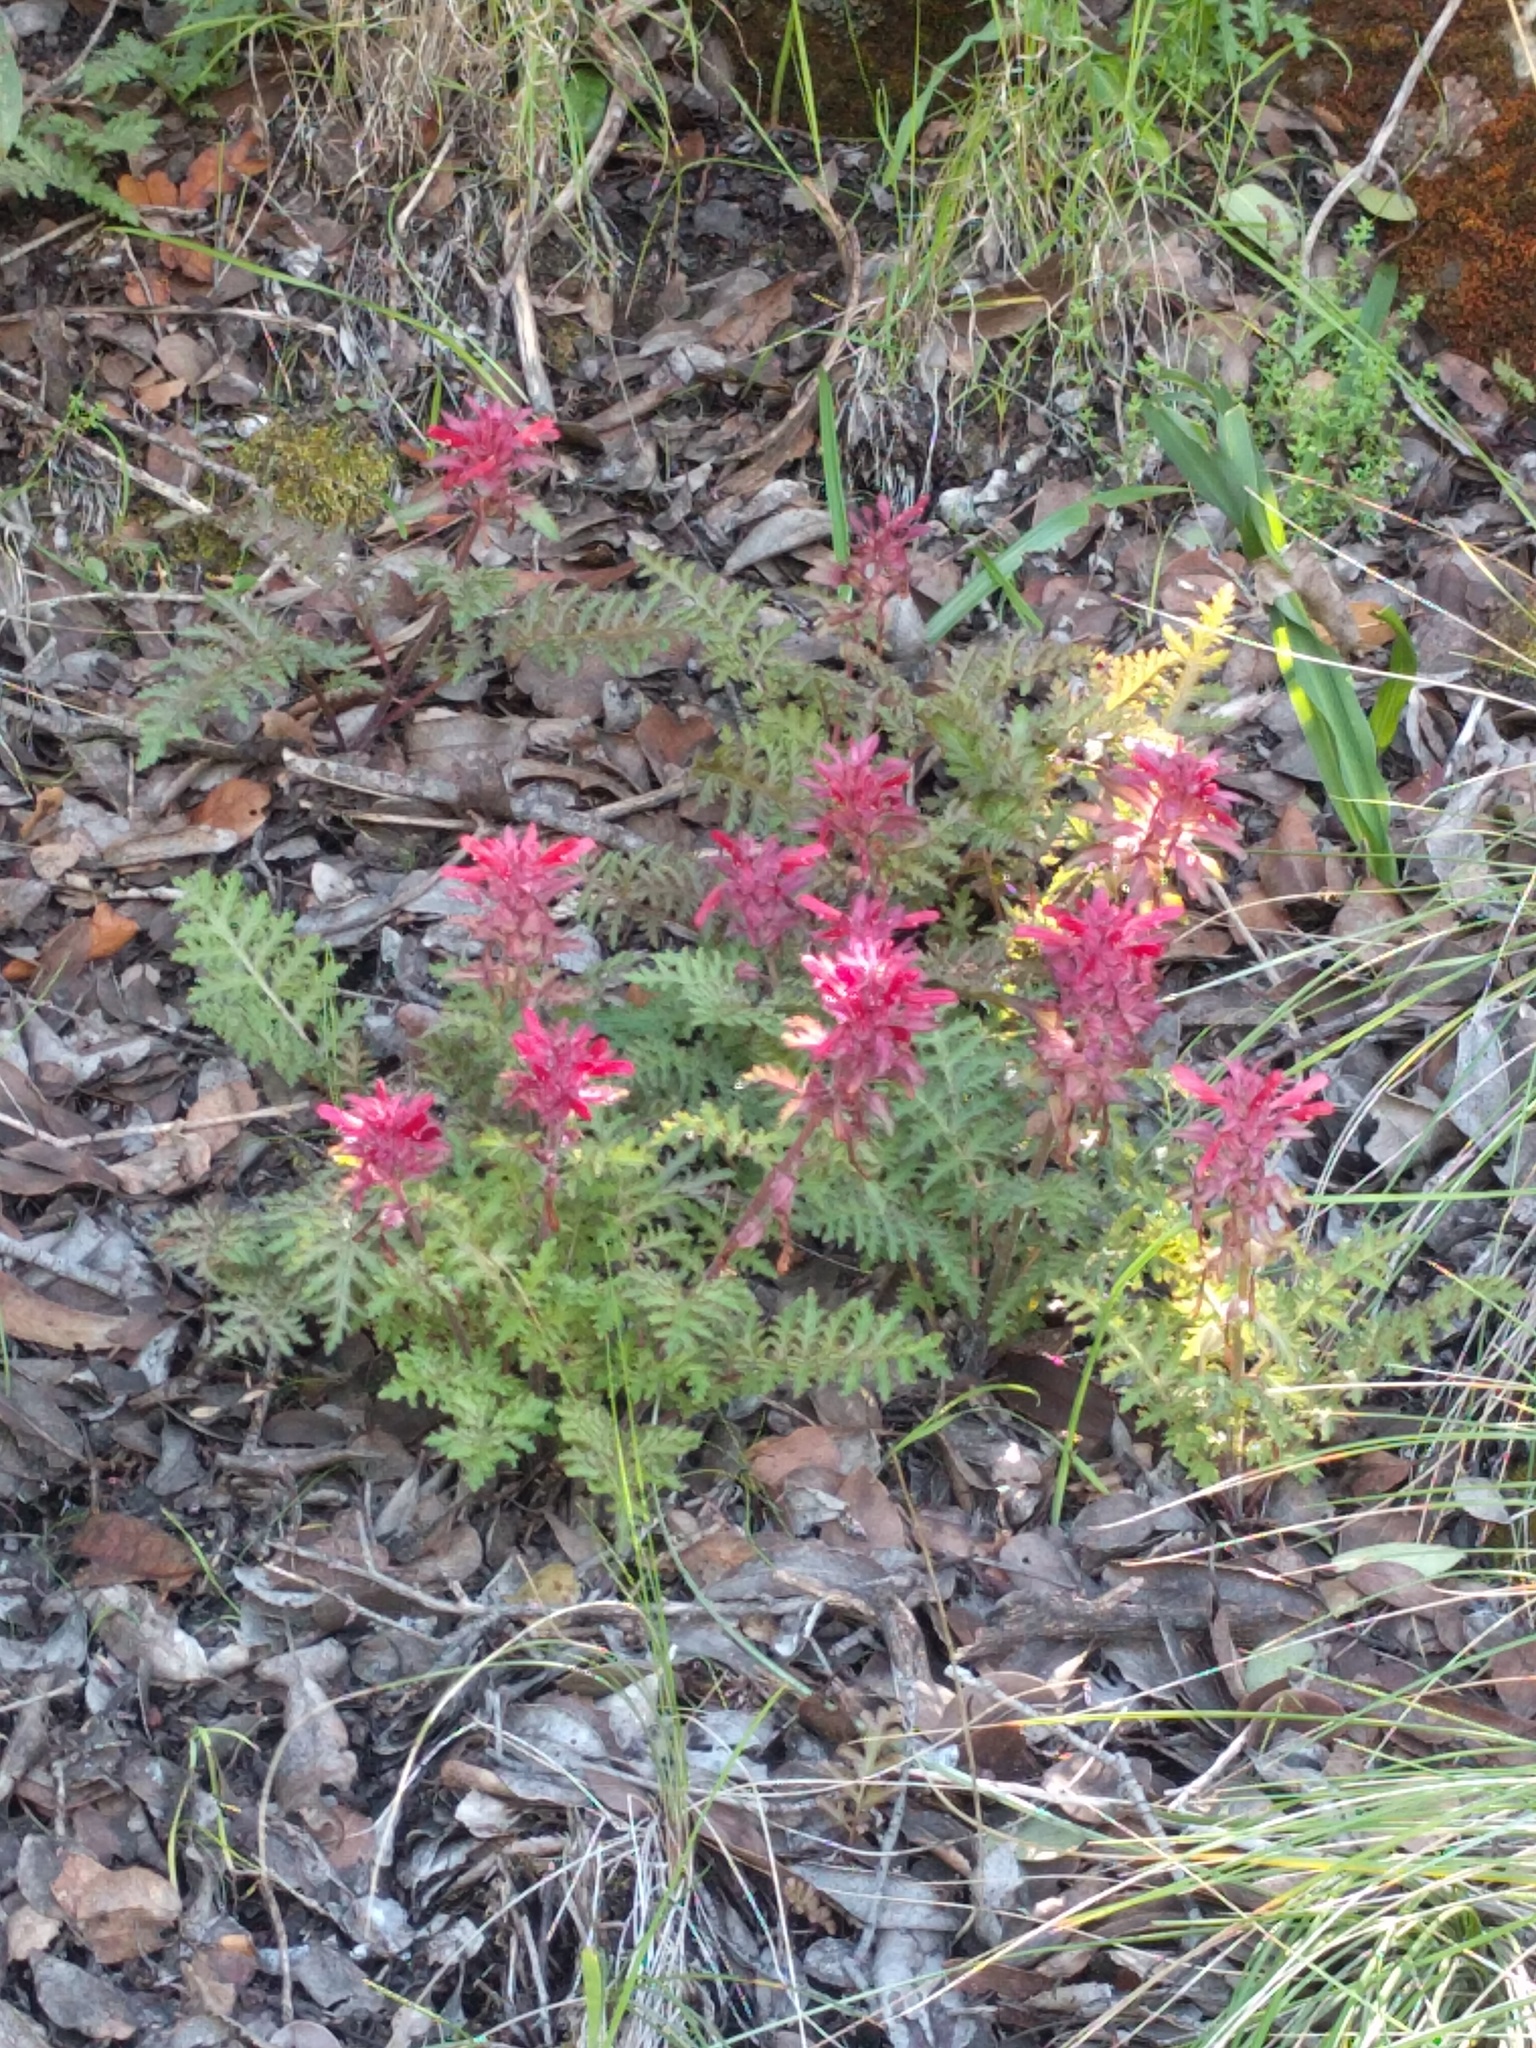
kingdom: Plantae
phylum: Tracheophyta
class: Magnoliopsida
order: Lamiales
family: Orobanchaceae
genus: Pedicularis
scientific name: Pedicularis densiflora
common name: Indian warrior
